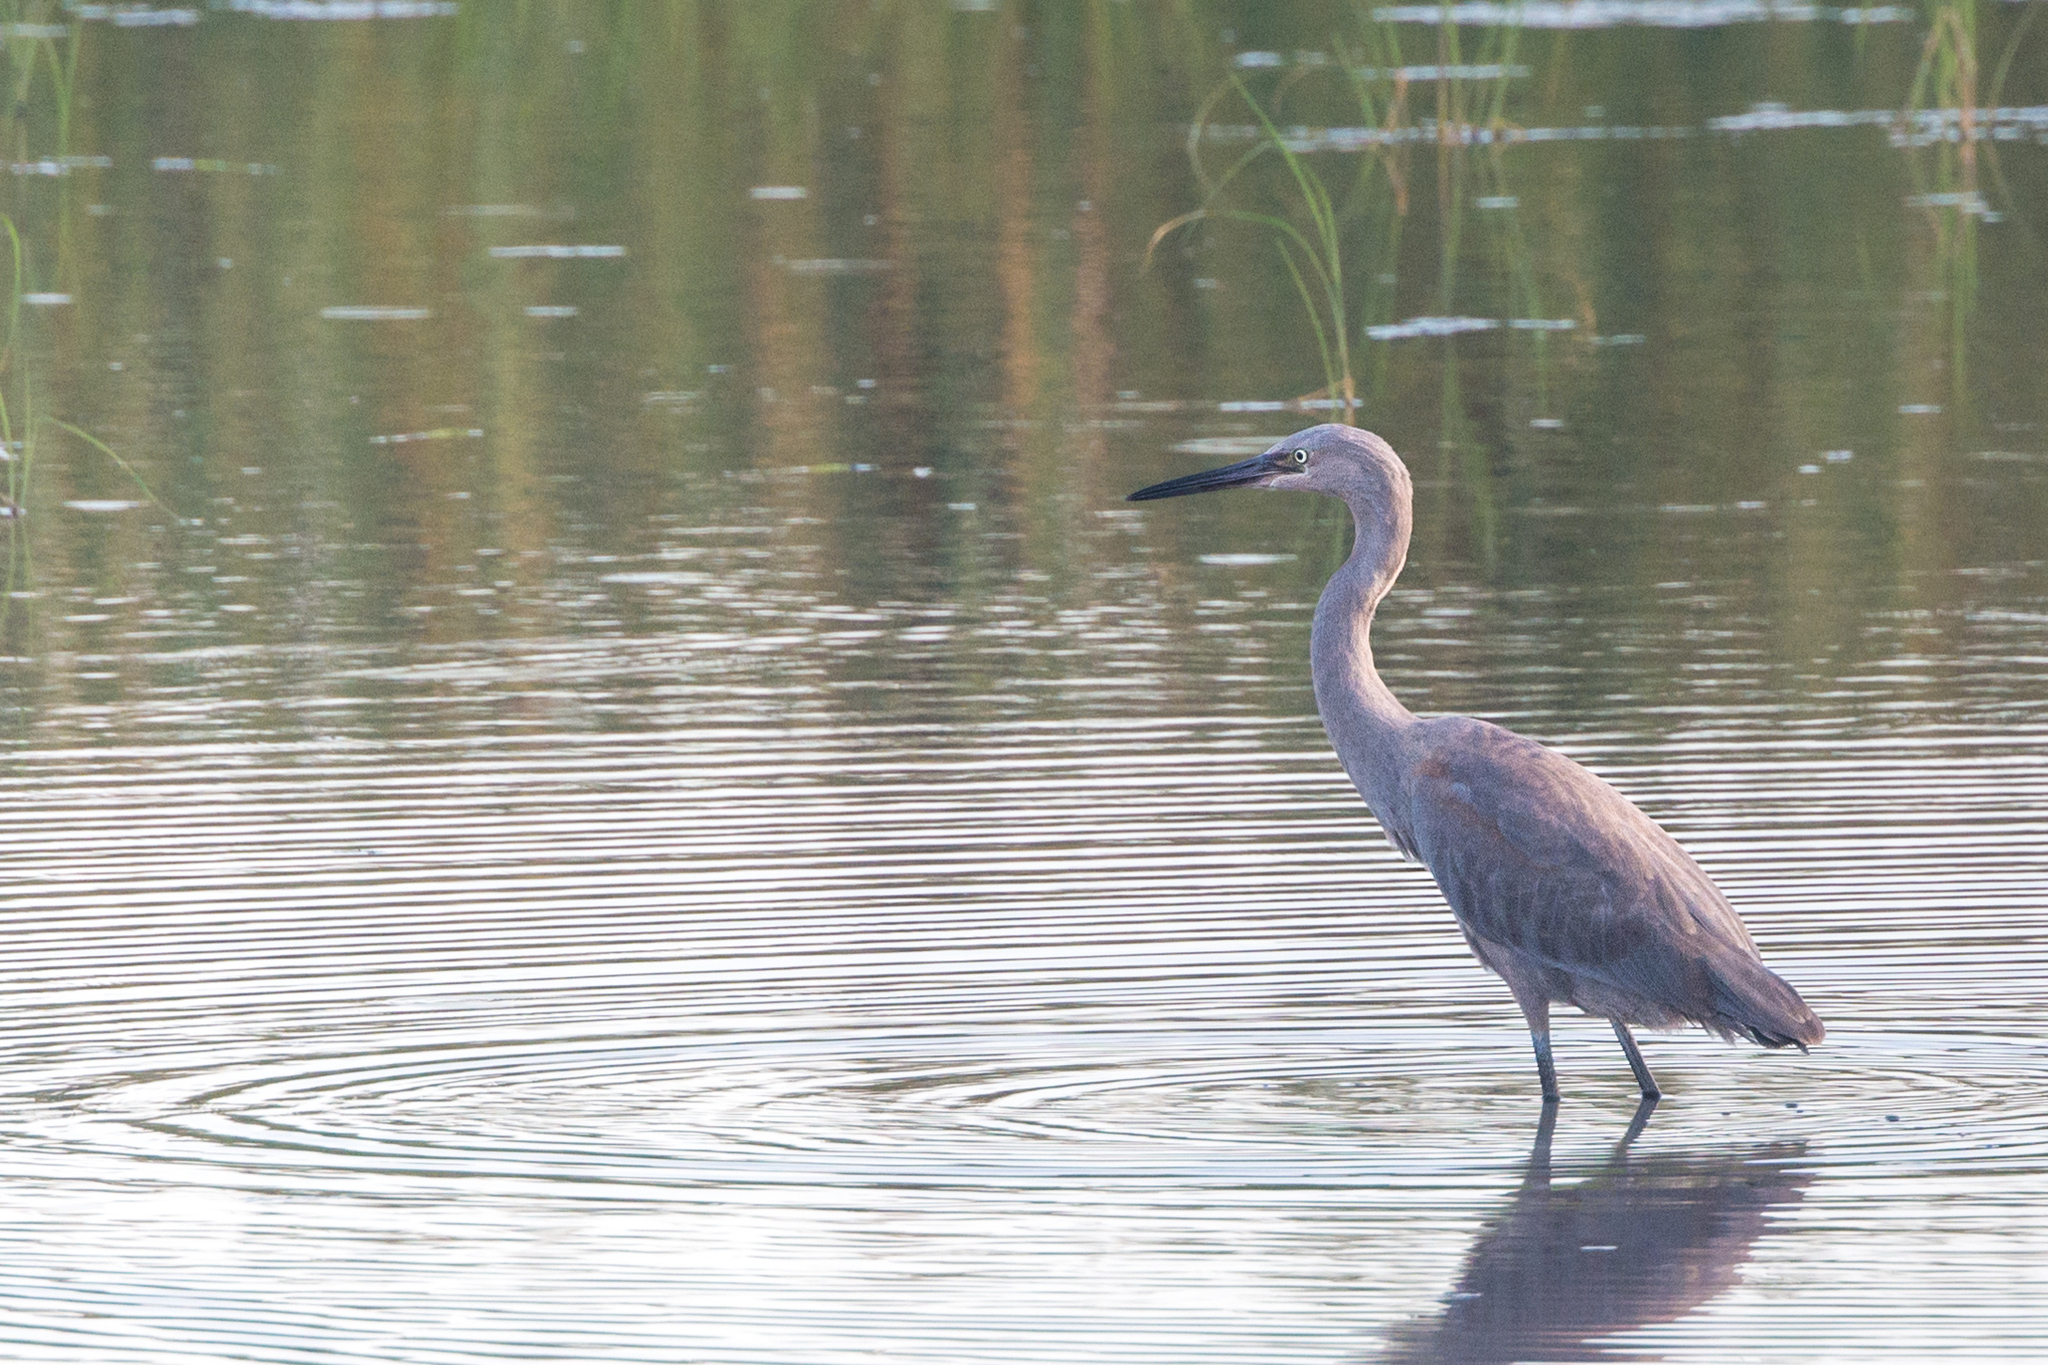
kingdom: Animalia
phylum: Chordata
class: Aves
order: Pelecaniformes
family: Ardeidae
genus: Egretta
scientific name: Egretta rufescens
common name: Reddish egret
